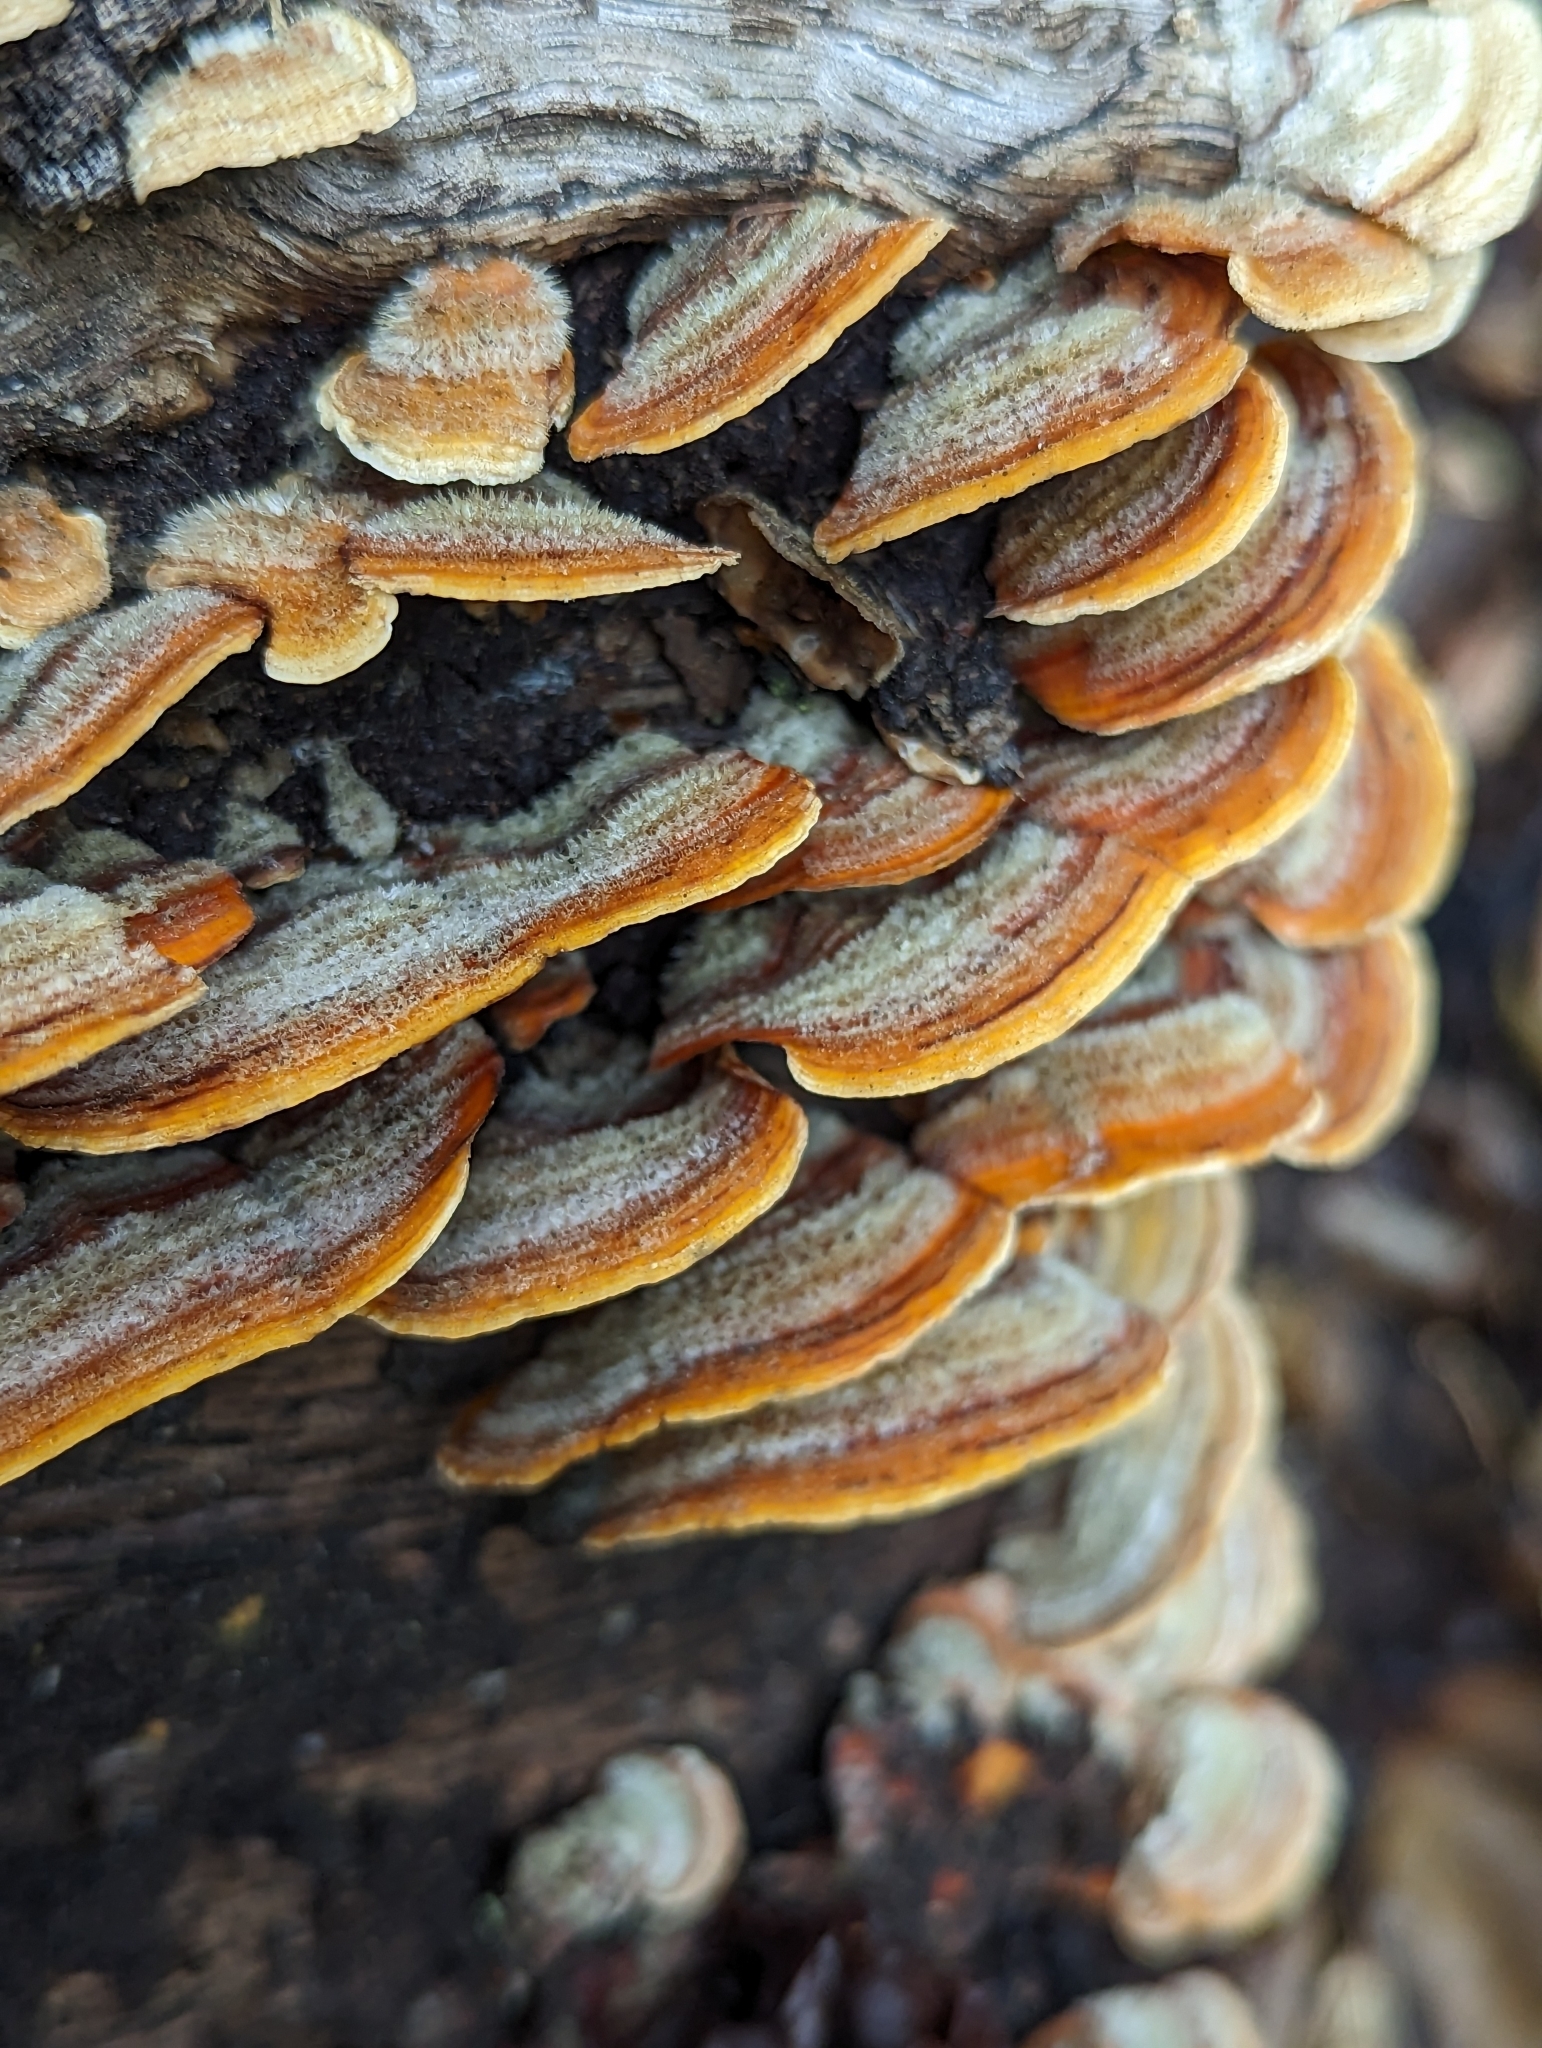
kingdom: Fungi
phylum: Basidiomycota
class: Agaricomycetes
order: Russulales
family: Stereaceae
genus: Stereum
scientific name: Stereum hirsutum
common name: Hairy curtain crust
